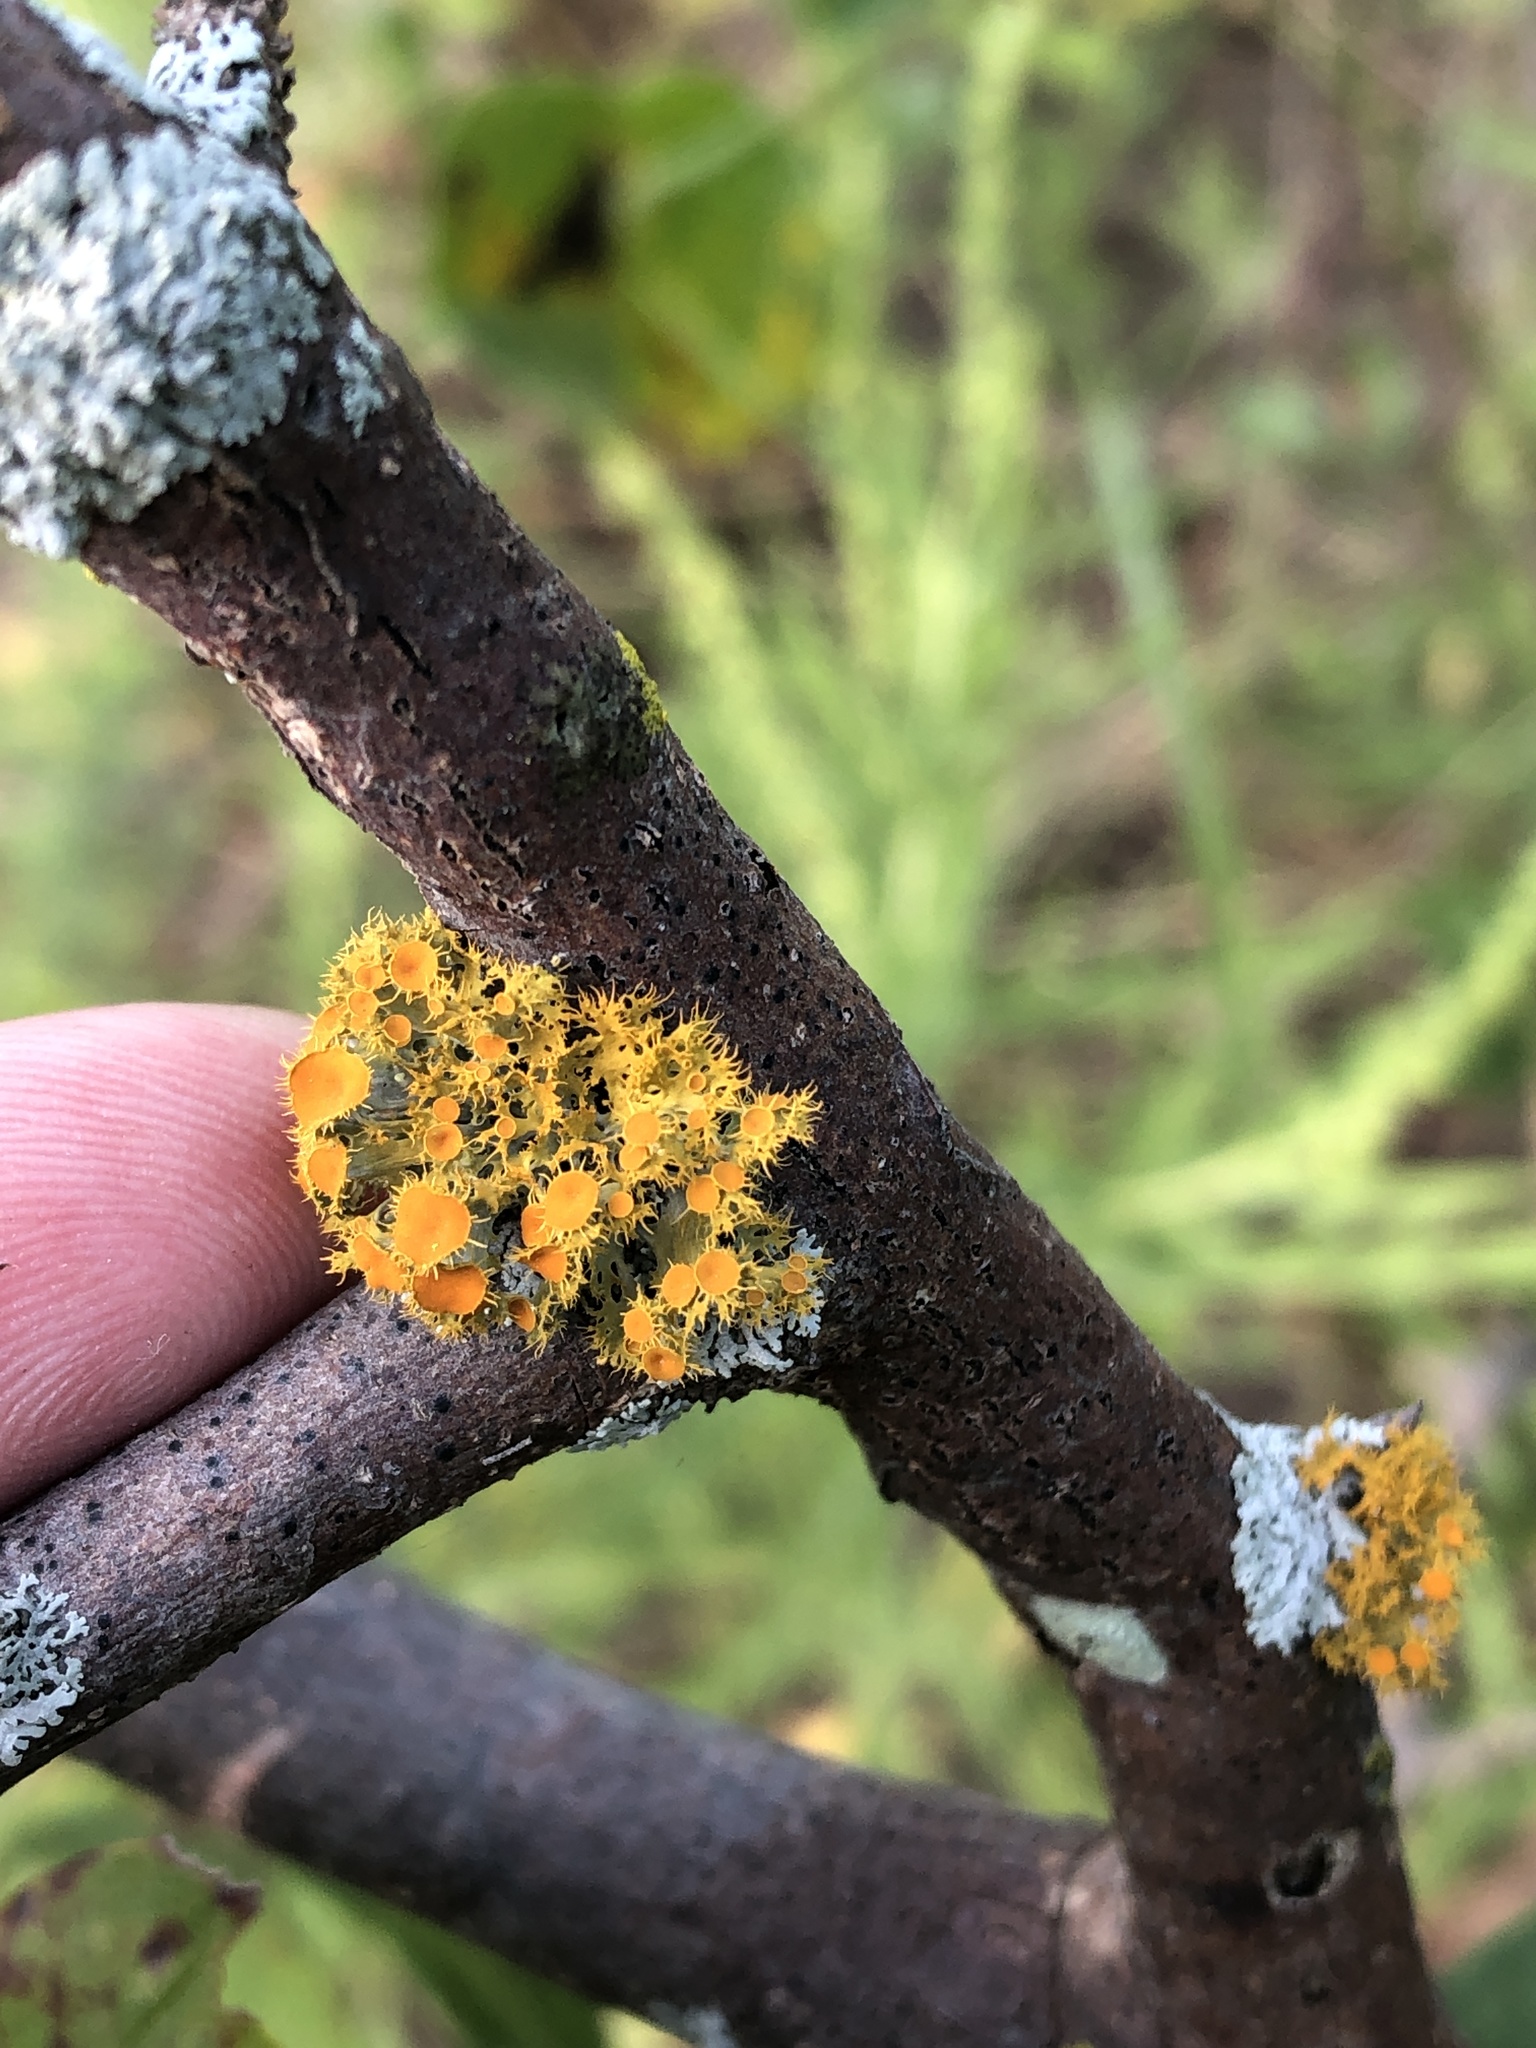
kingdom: Fungi
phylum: Ascomycota
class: Lecanoromycetes
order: Teloschistales
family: Teloschistaceae
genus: Niorma
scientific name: Niorma chrysophthalma
